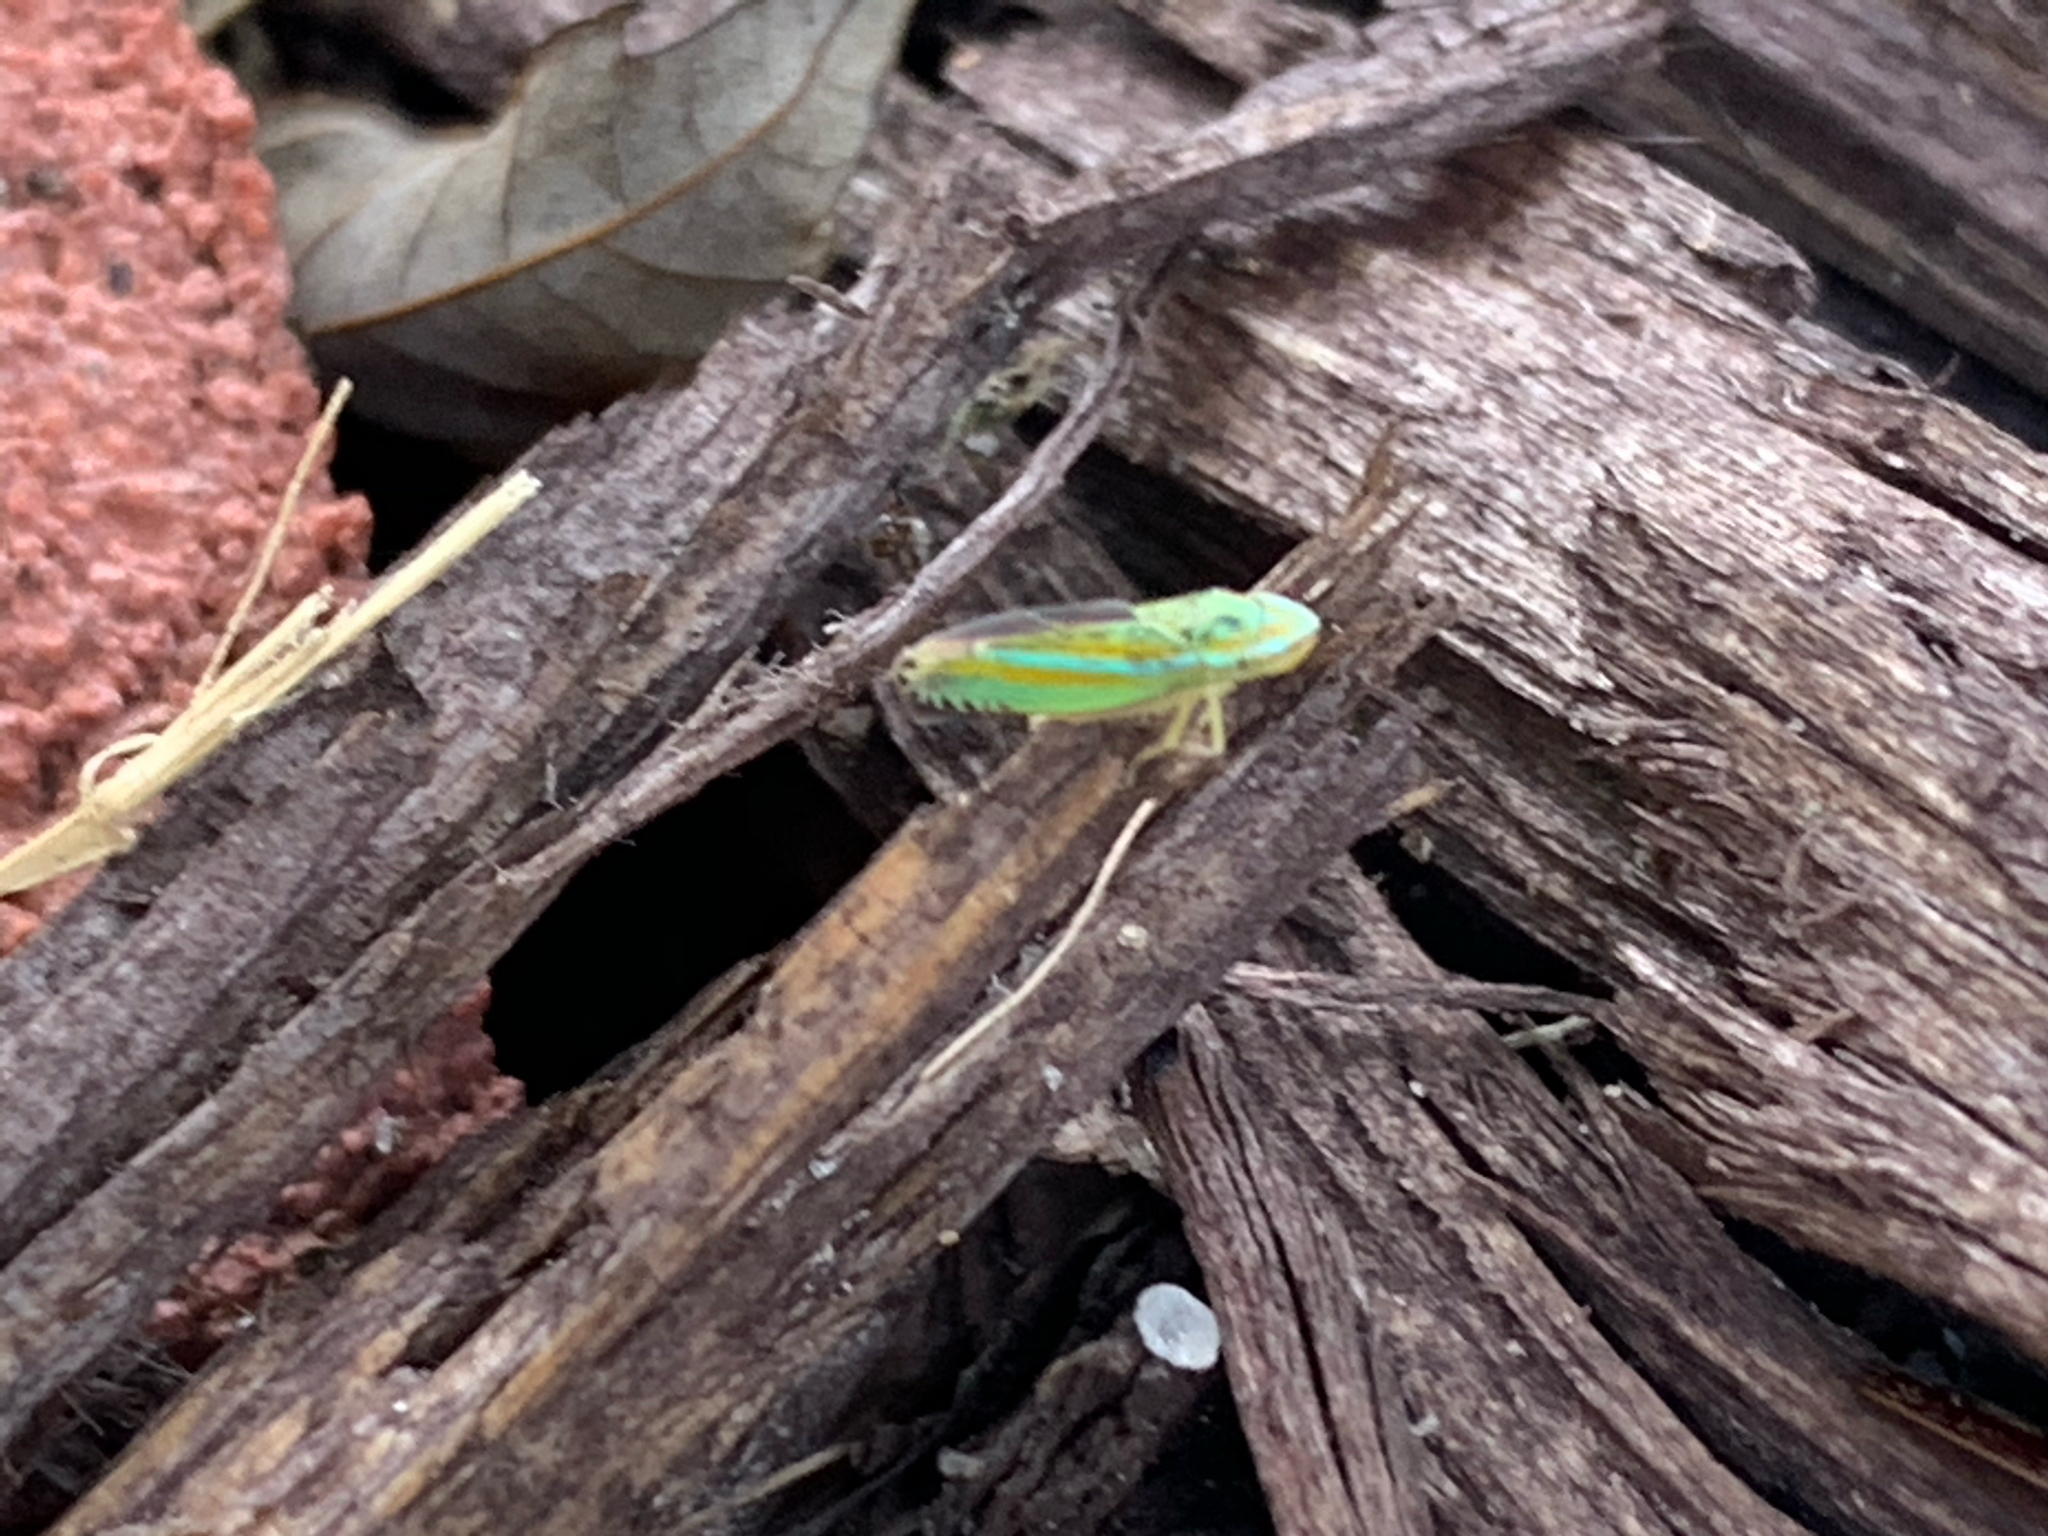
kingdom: Animalia
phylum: Arthropoda
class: Insecta
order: Hemiptera
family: Cicadellidae
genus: Graphocephala
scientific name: Graphocephala versuta
